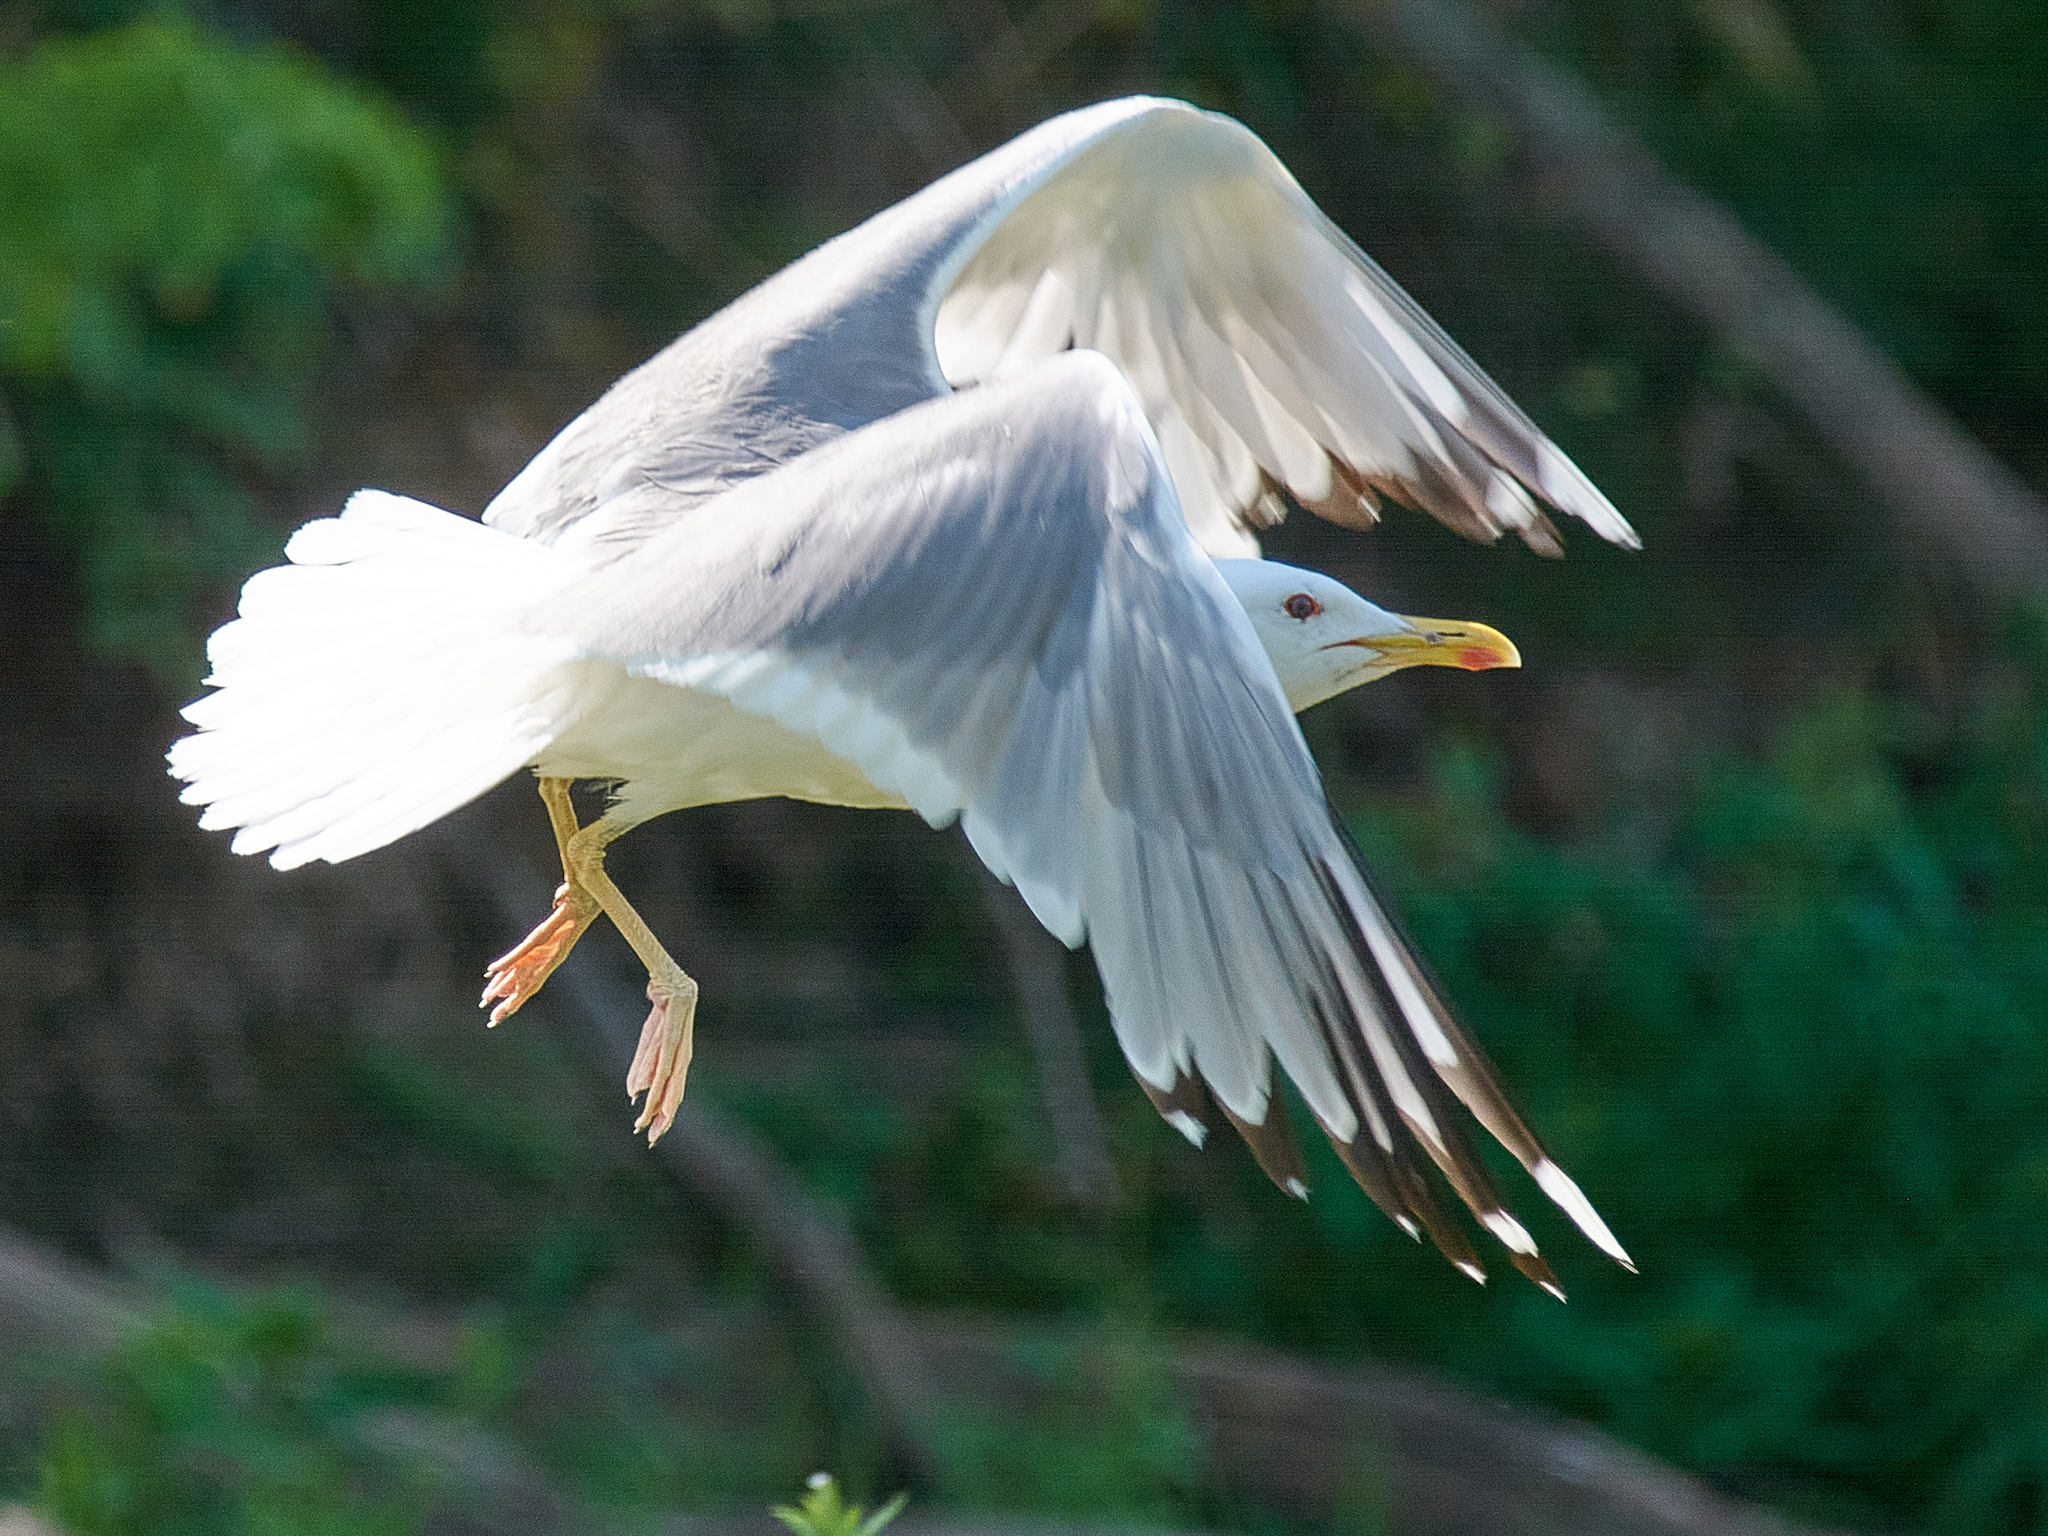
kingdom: Animalia
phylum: Chordata
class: Aves
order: Charadriiformes
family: Laridae
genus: Larus
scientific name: Larus argentatus
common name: Herring gull
